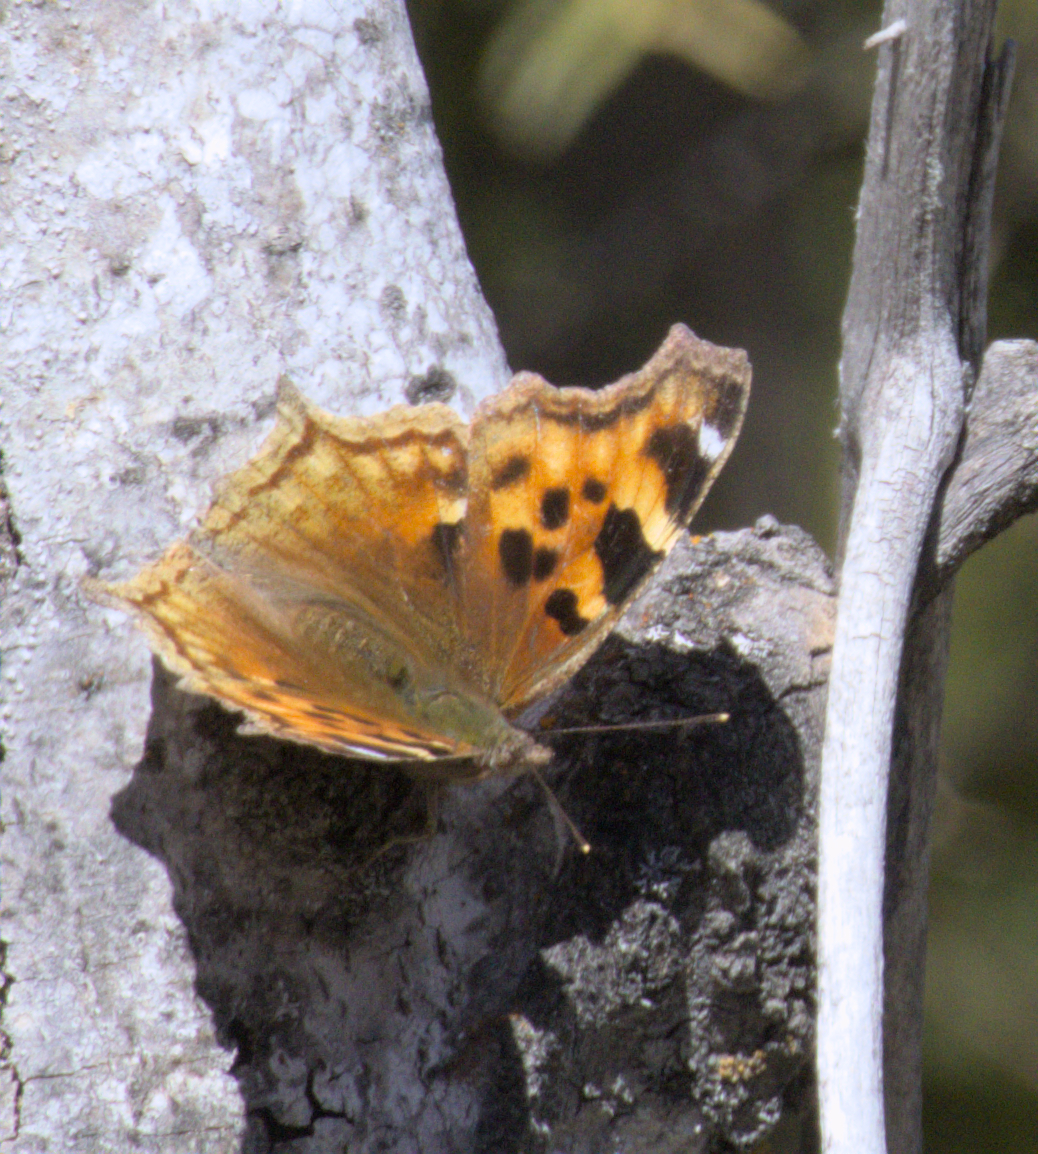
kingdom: Animalia
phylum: Arthropoda
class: Insecta
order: Lepidoptera
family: Nymphalidae
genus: Polygonia
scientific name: Polygonia vaualbum
